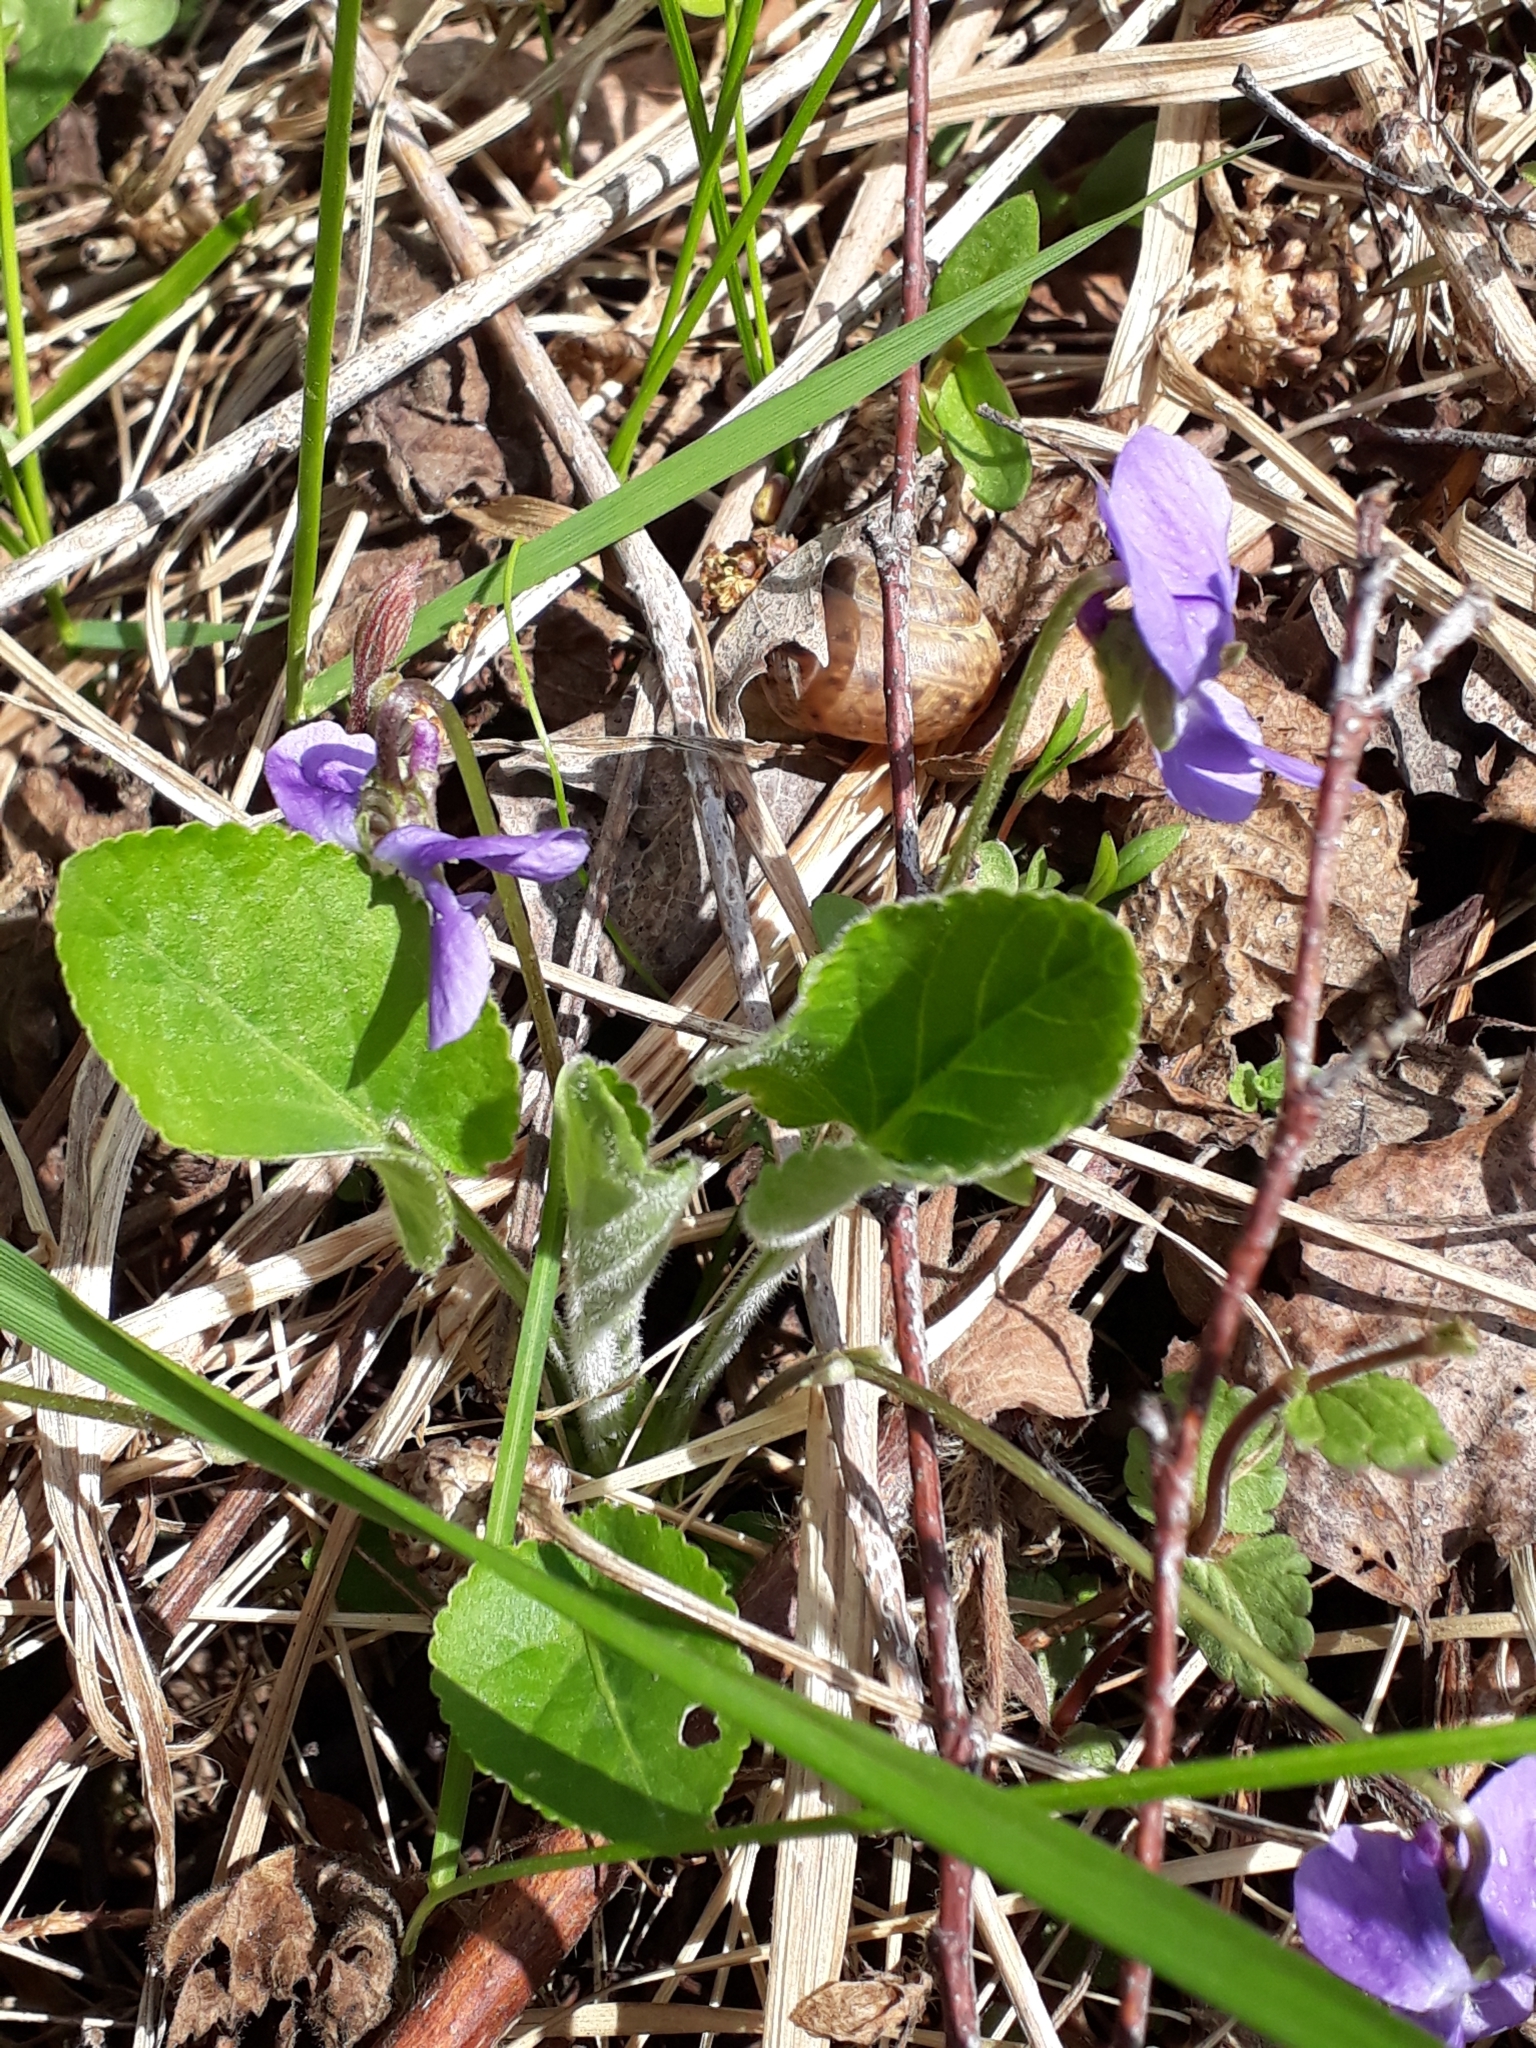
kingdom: Plantae
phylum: Tracheophyta
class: Magnoliopsida
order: Malpighiales
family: Violaceae
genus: Viola
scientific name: Viola hirta
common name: Hairy violet
